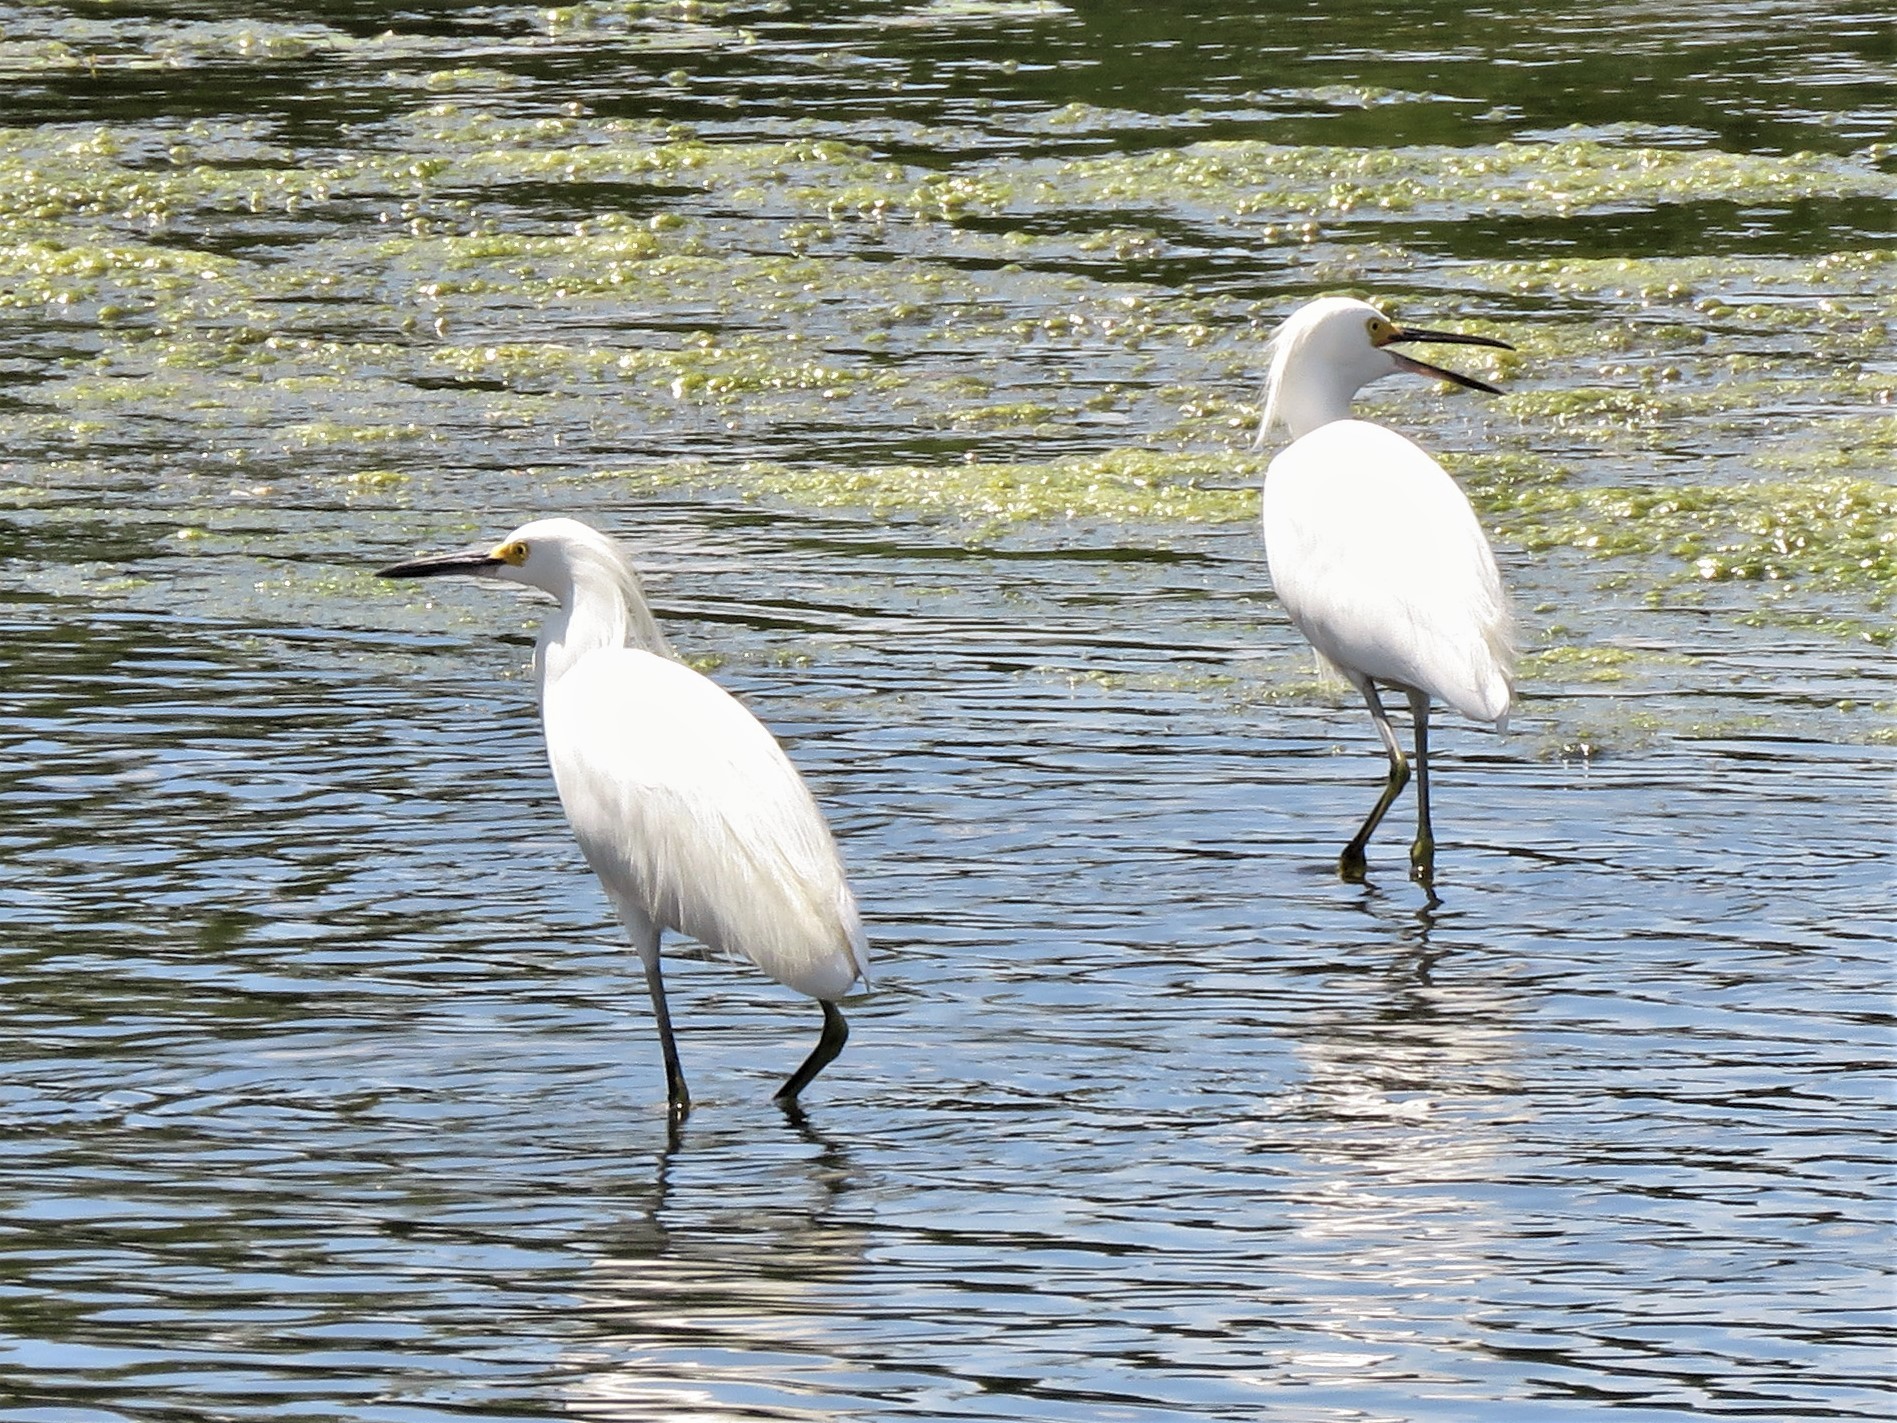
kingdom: Animalia
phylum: Chordata
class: Aves
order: Pelecaniformes
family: Ardeidae
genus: Egretta
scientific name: Egretta thula
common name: Snowy egret
